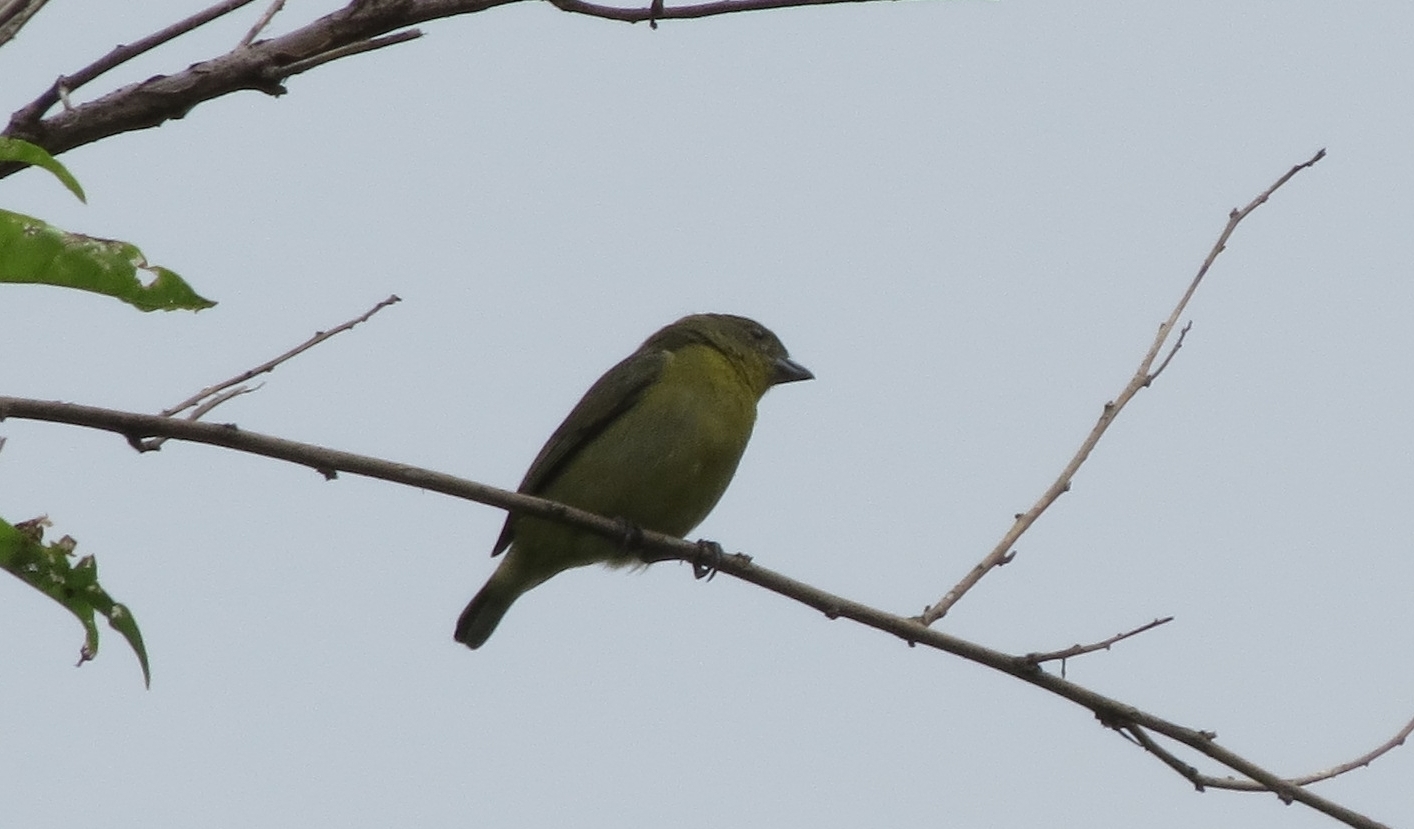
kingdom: Animalia
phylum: Chordata
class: Aves
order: Passeriformes
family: Fringillidae
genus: Euphonia
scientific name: Euphonia laniirostris
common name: Thick-billed euphonia
